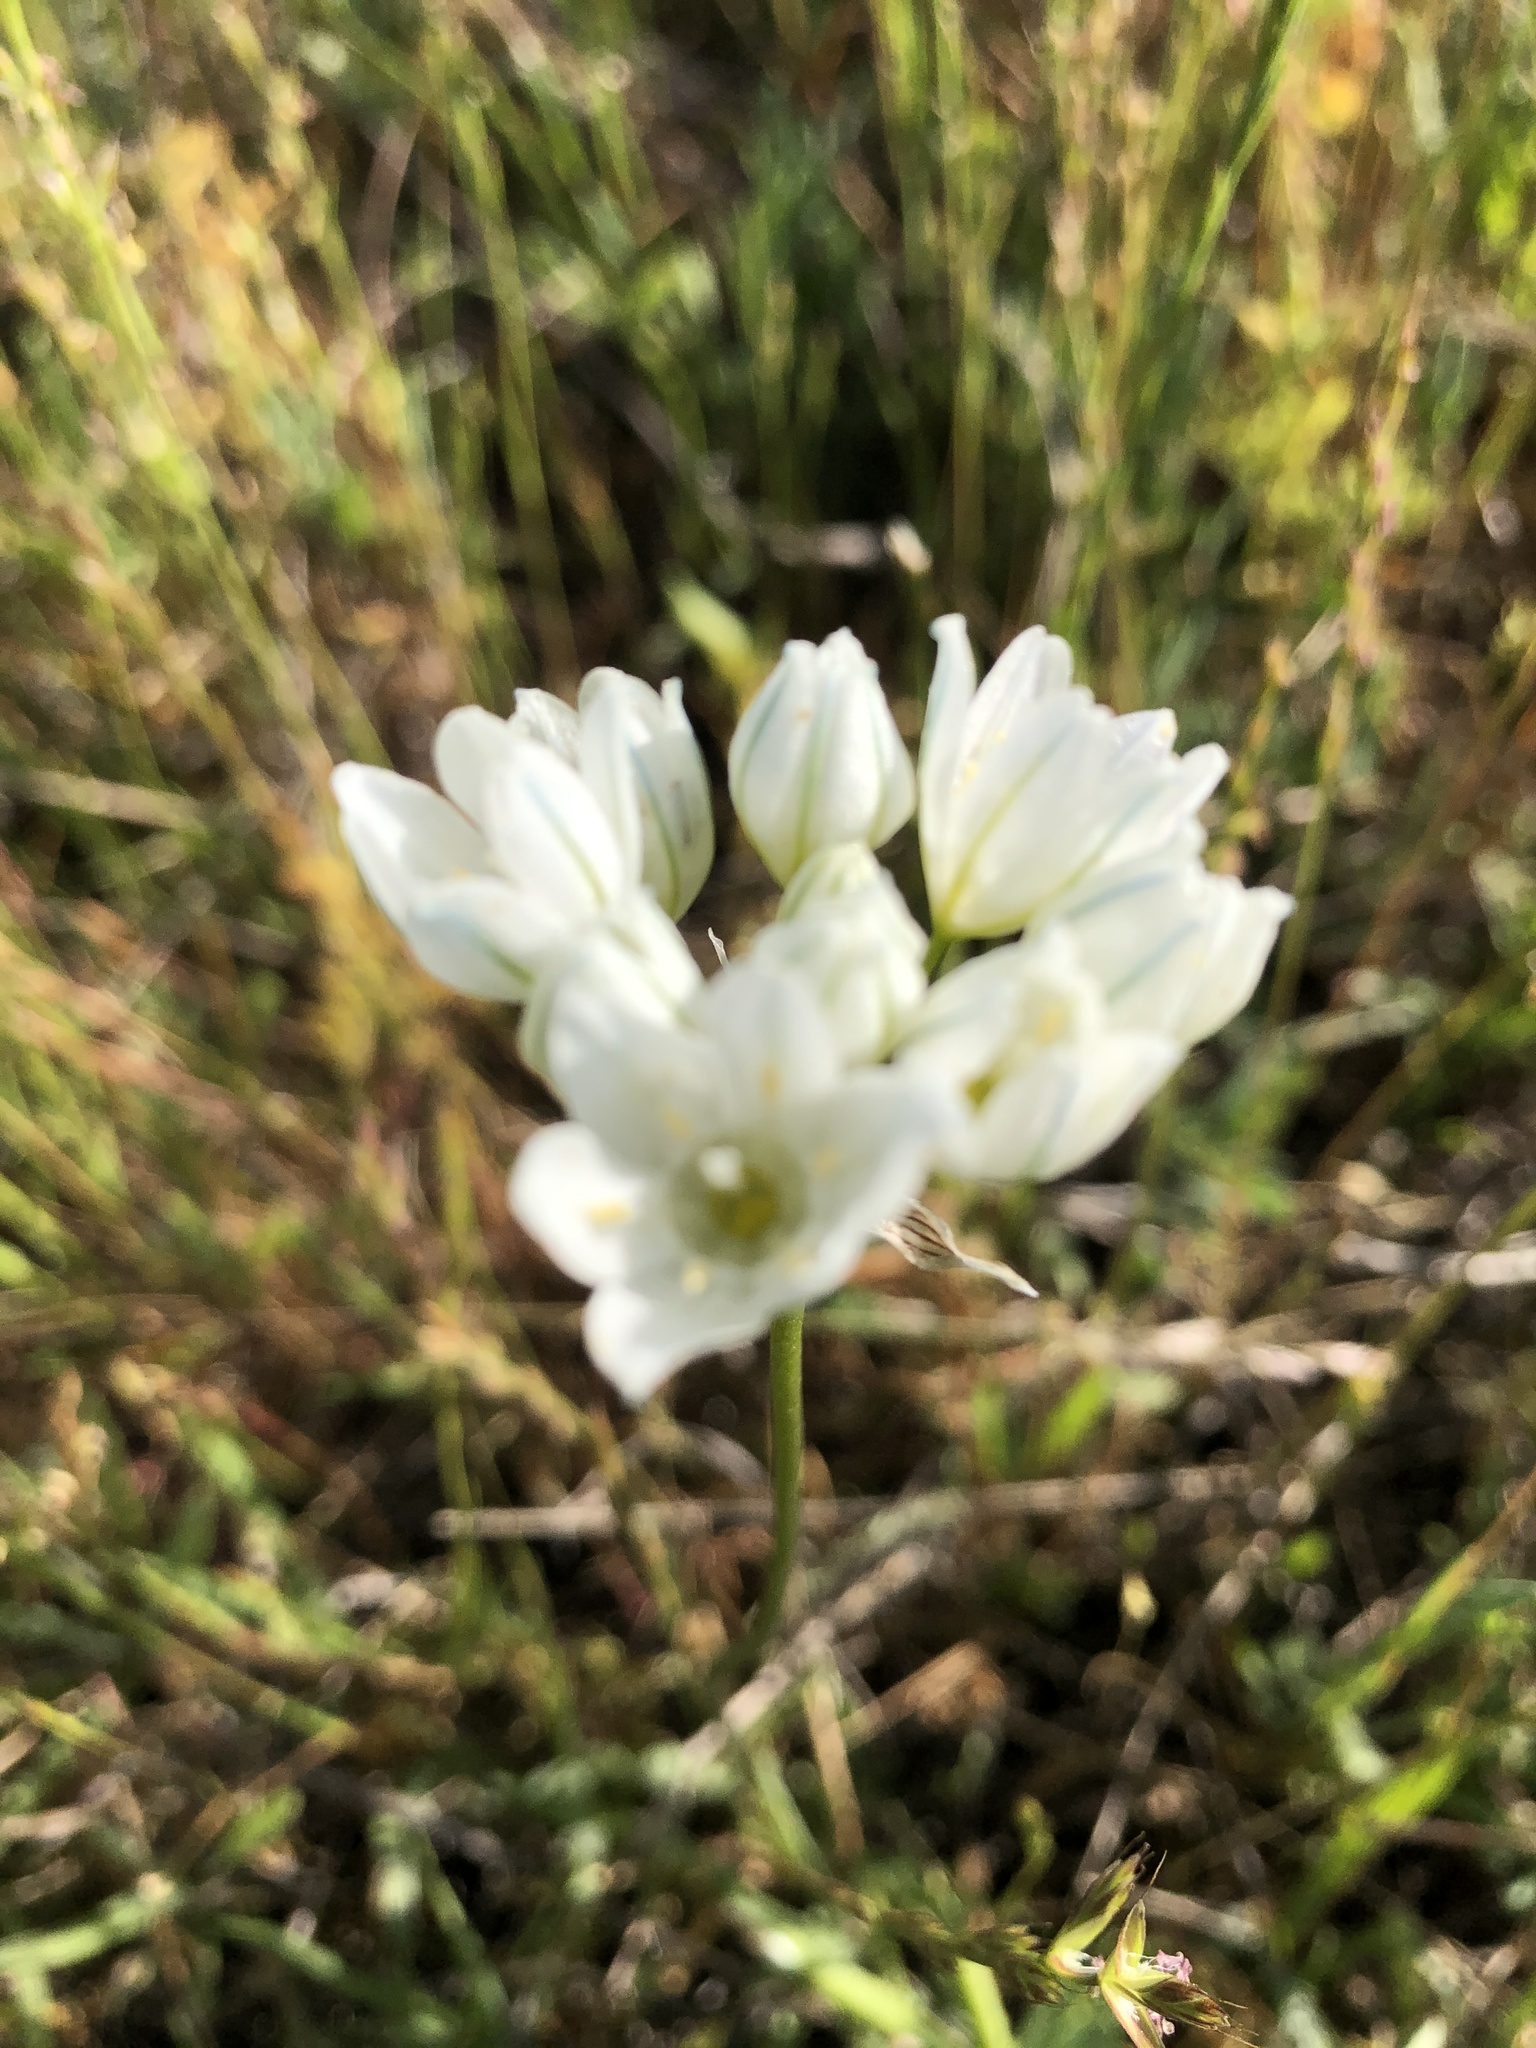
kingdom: Plantae
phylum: Tracheophyta
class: Liliopsida
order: Asparagales
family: Asparagaceae
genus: Triteleia
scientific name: Triteleia hyacinthina
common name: White brodiaea
